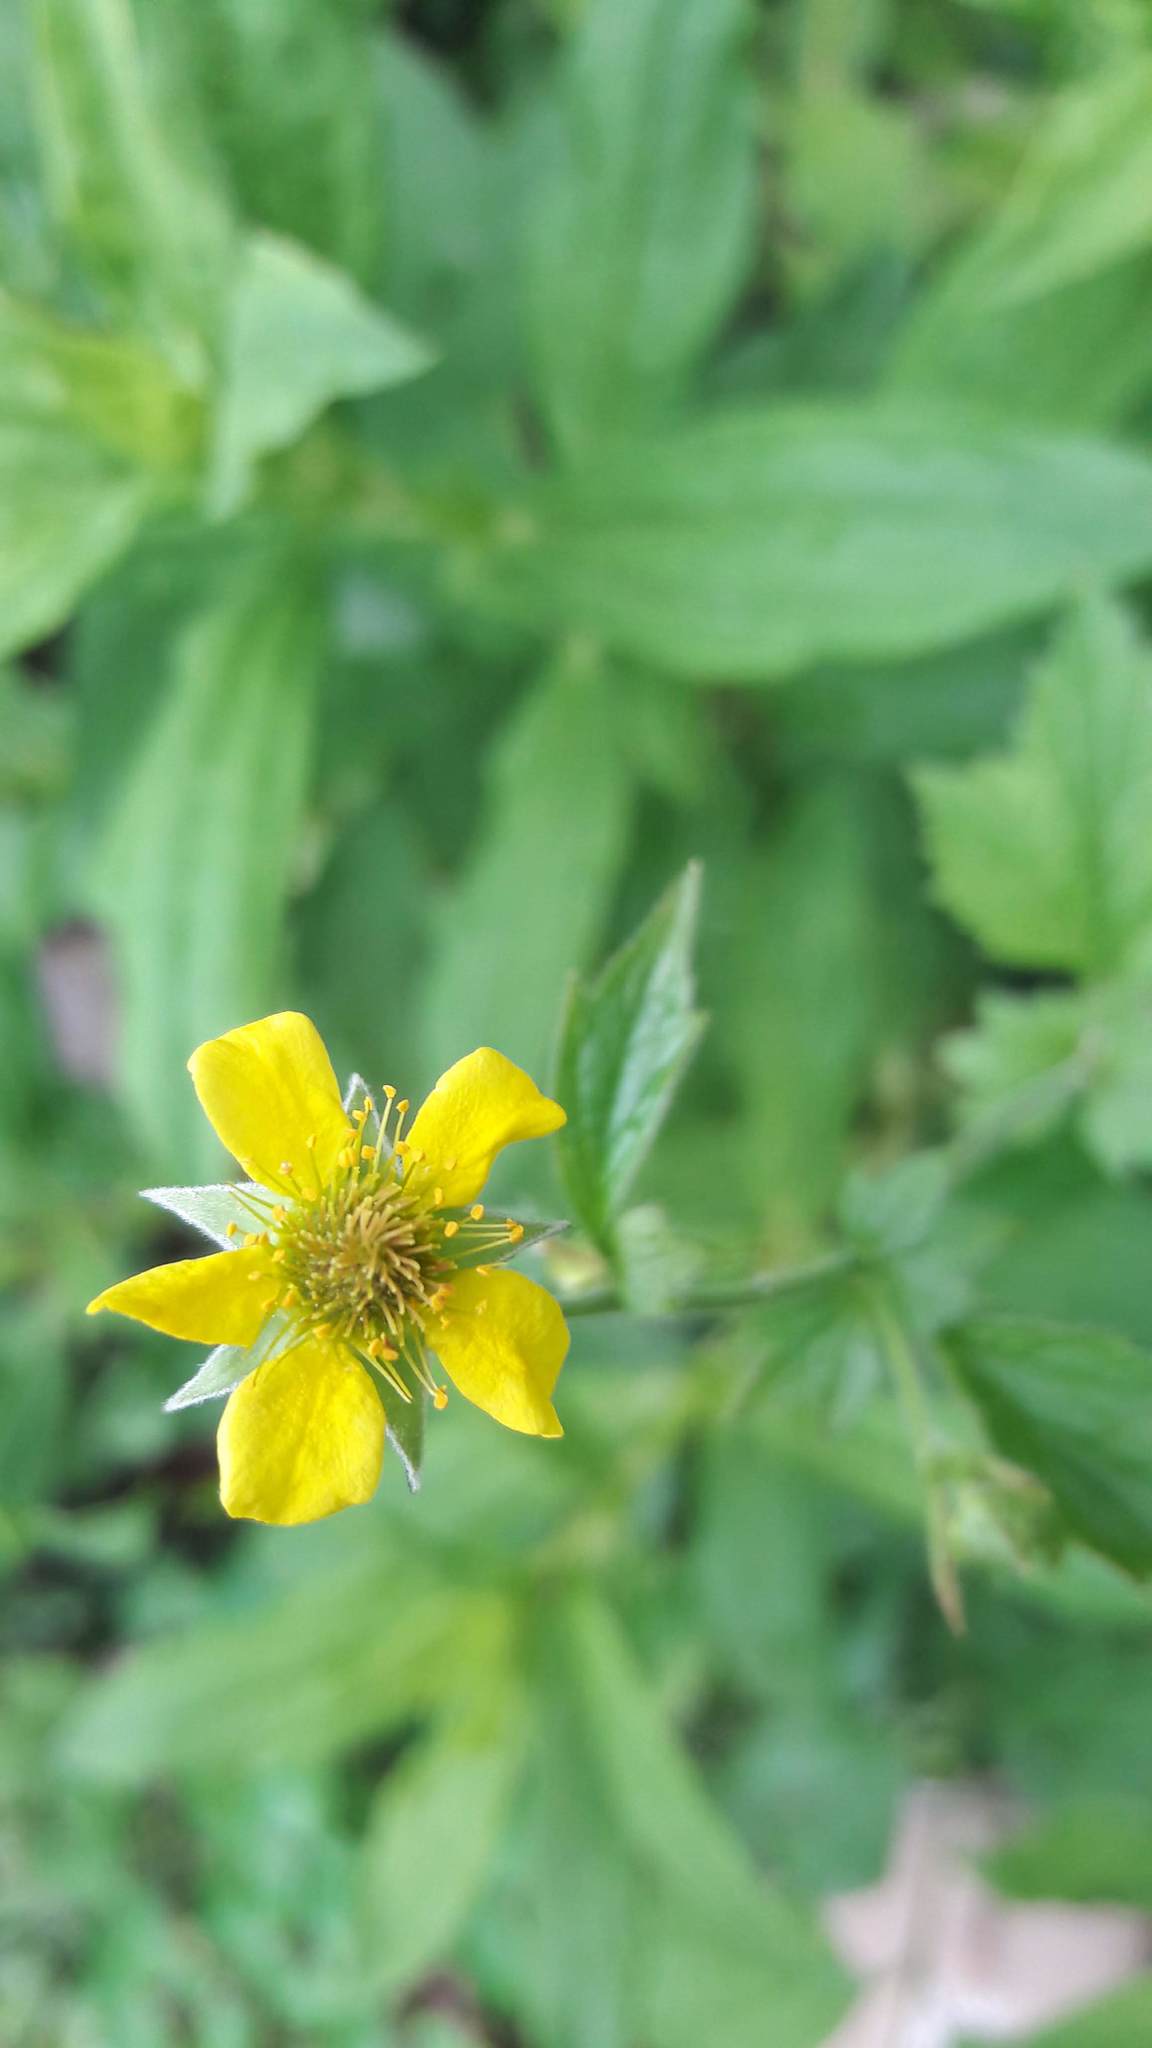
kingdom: Plantae
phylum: Tracheophyta
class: Magnoliopsida
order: Rosales
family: Rosaceae
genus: Geum
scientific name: Geum urbanum
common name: Wood avens
